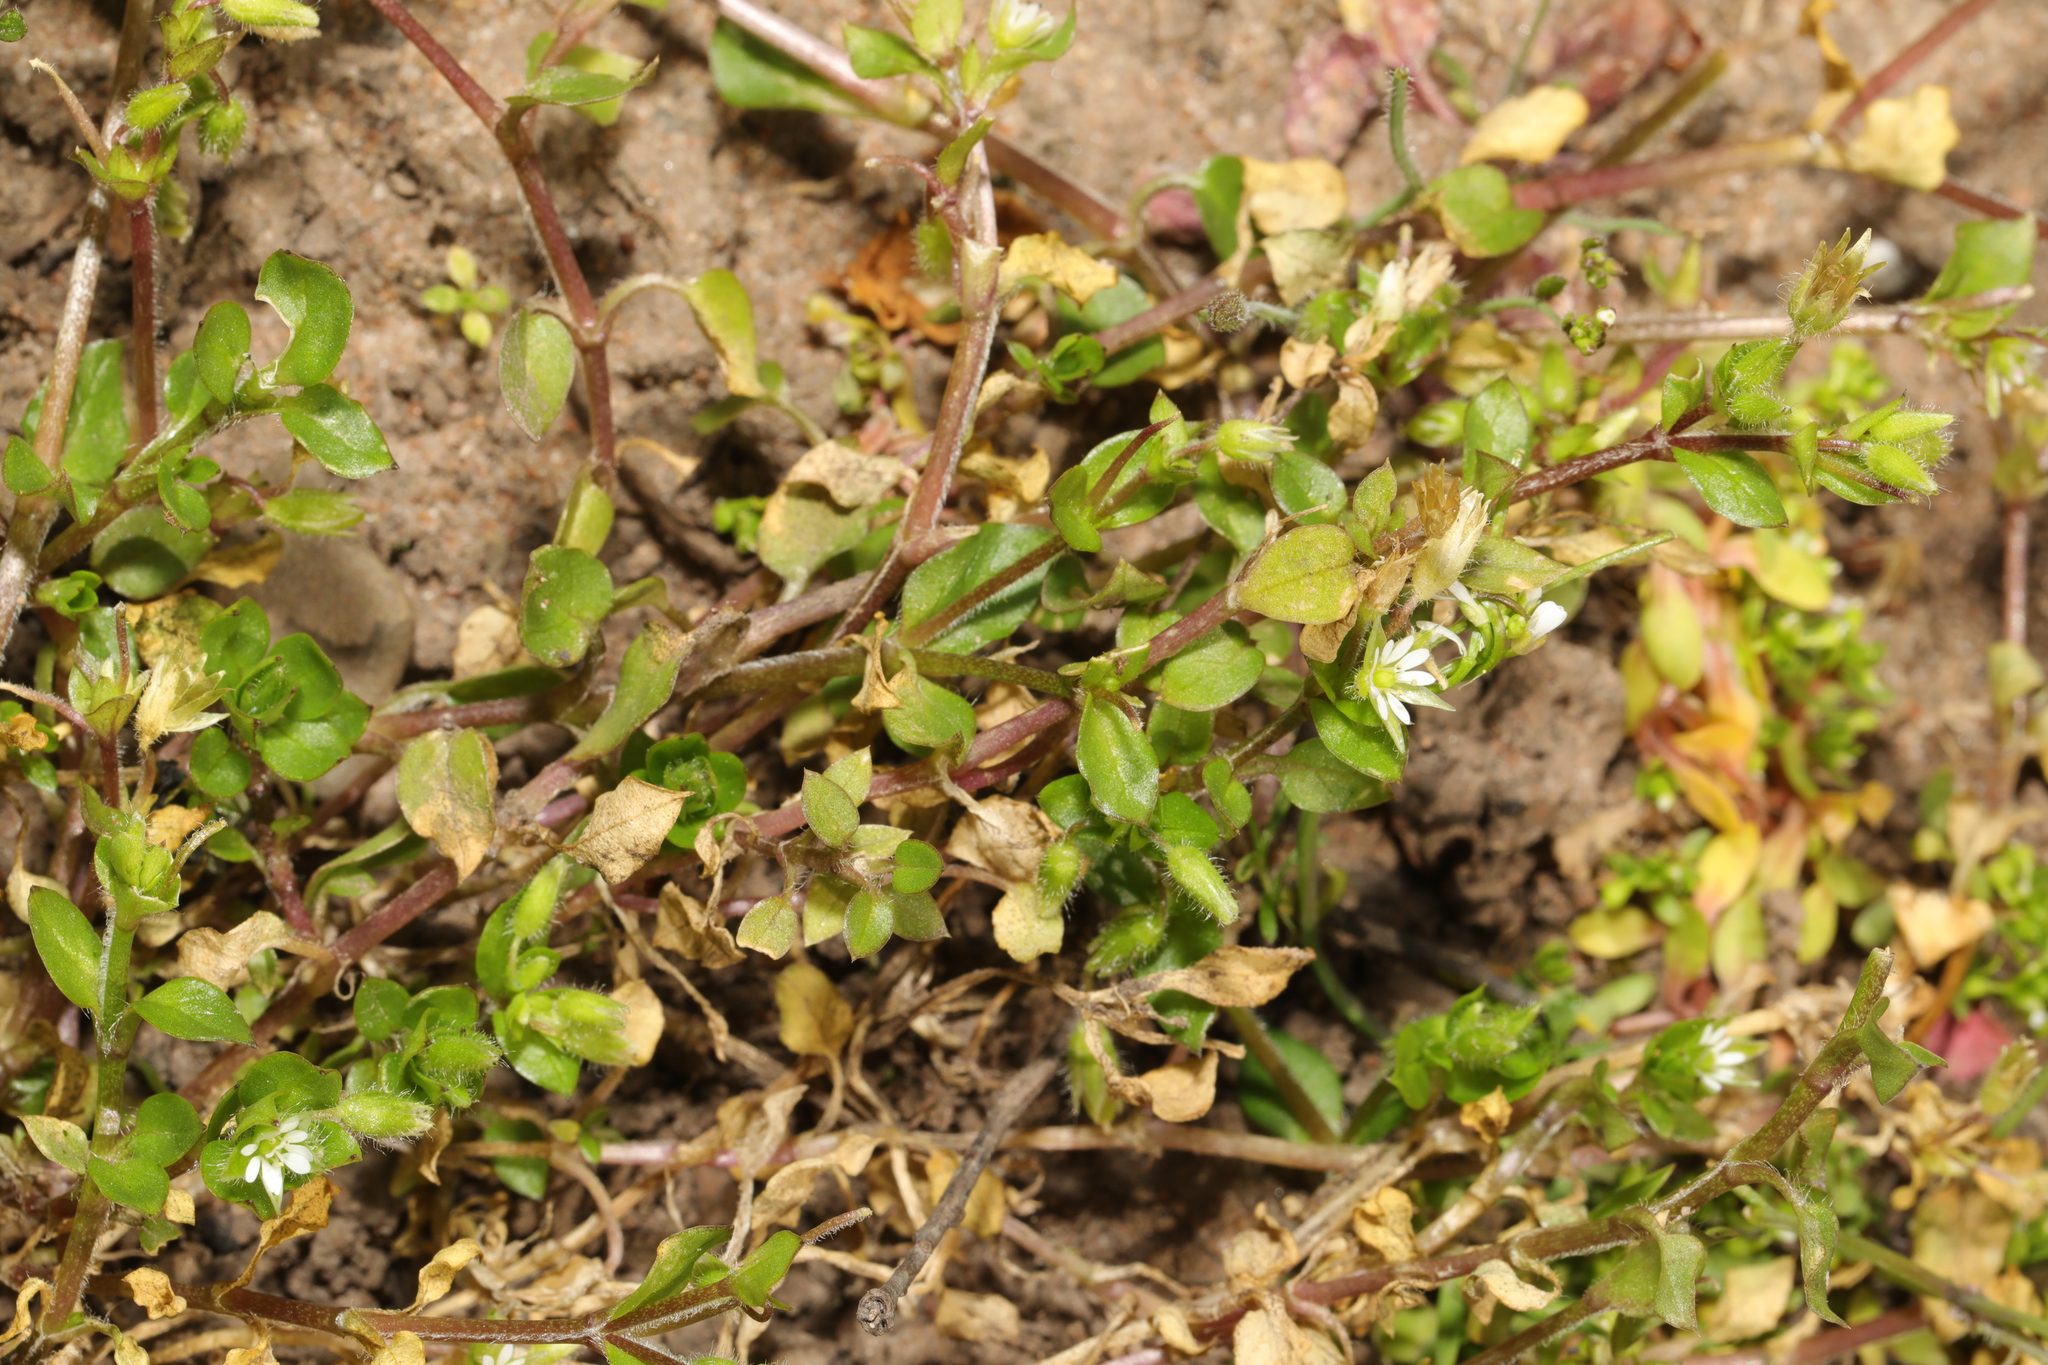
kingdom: Plantae
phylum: Tracheophyta
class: Magnoliopsida
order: Caryophyllales
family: Caryophyllaceae
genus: Stellaria
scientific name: Stellaria media
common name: Common chickweed
